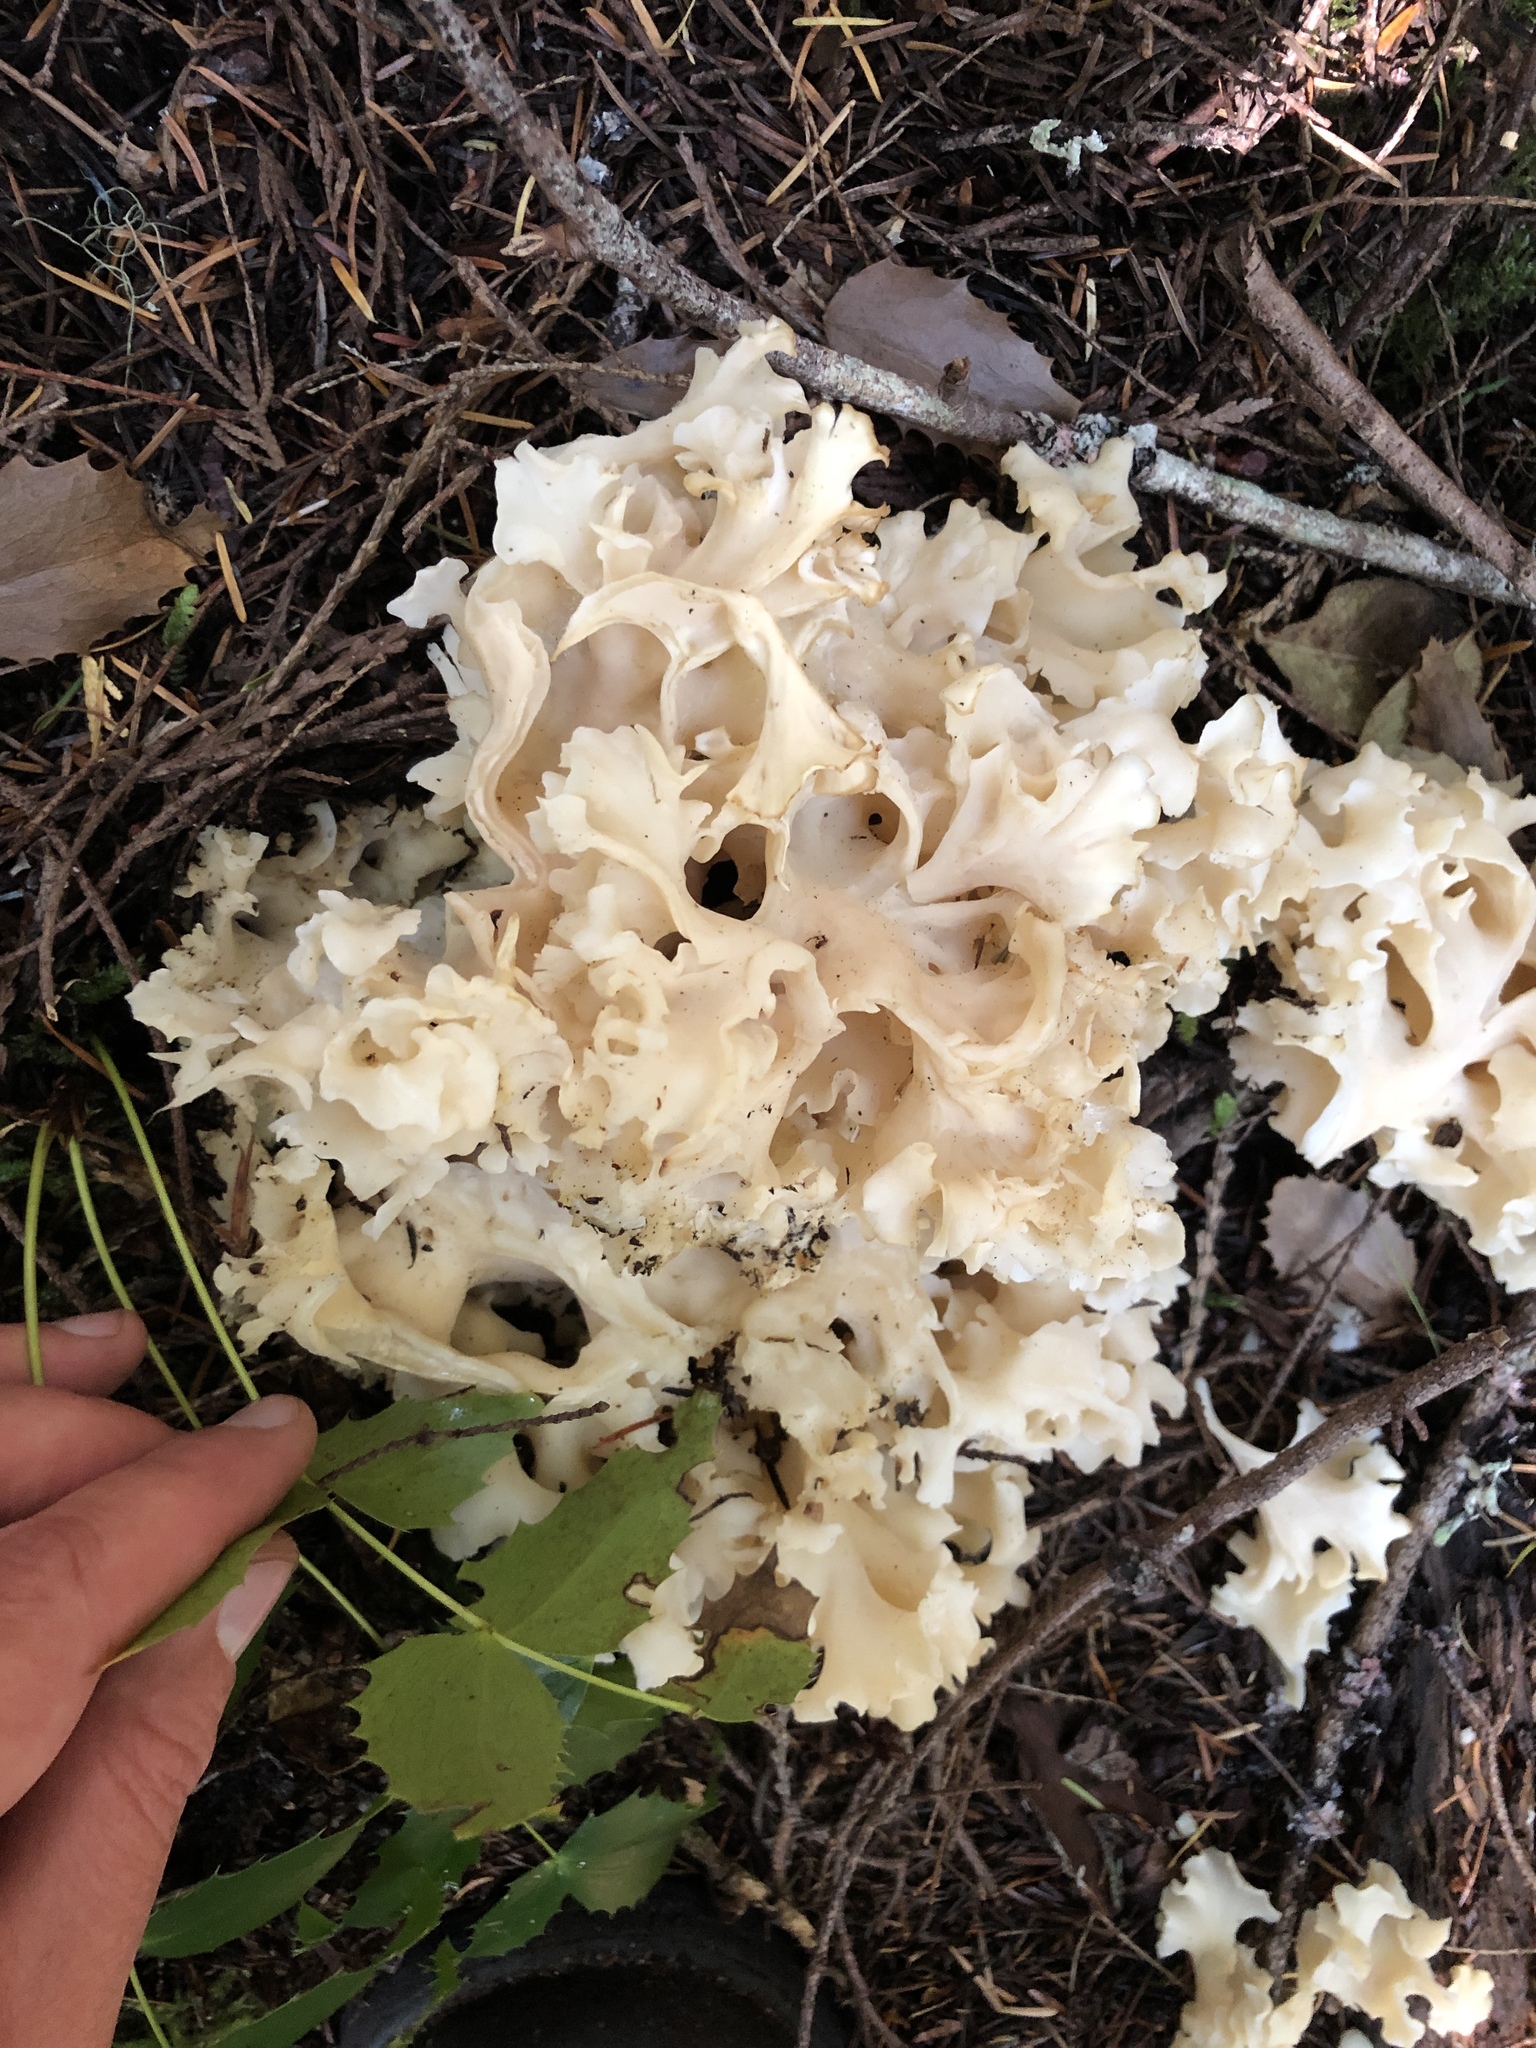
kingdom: Fungi
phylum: Basidiomycota
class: Agaricomycetes
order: Polyporales
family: Sparassidaceae
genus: Sparassis
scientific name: Sparassis radicata
